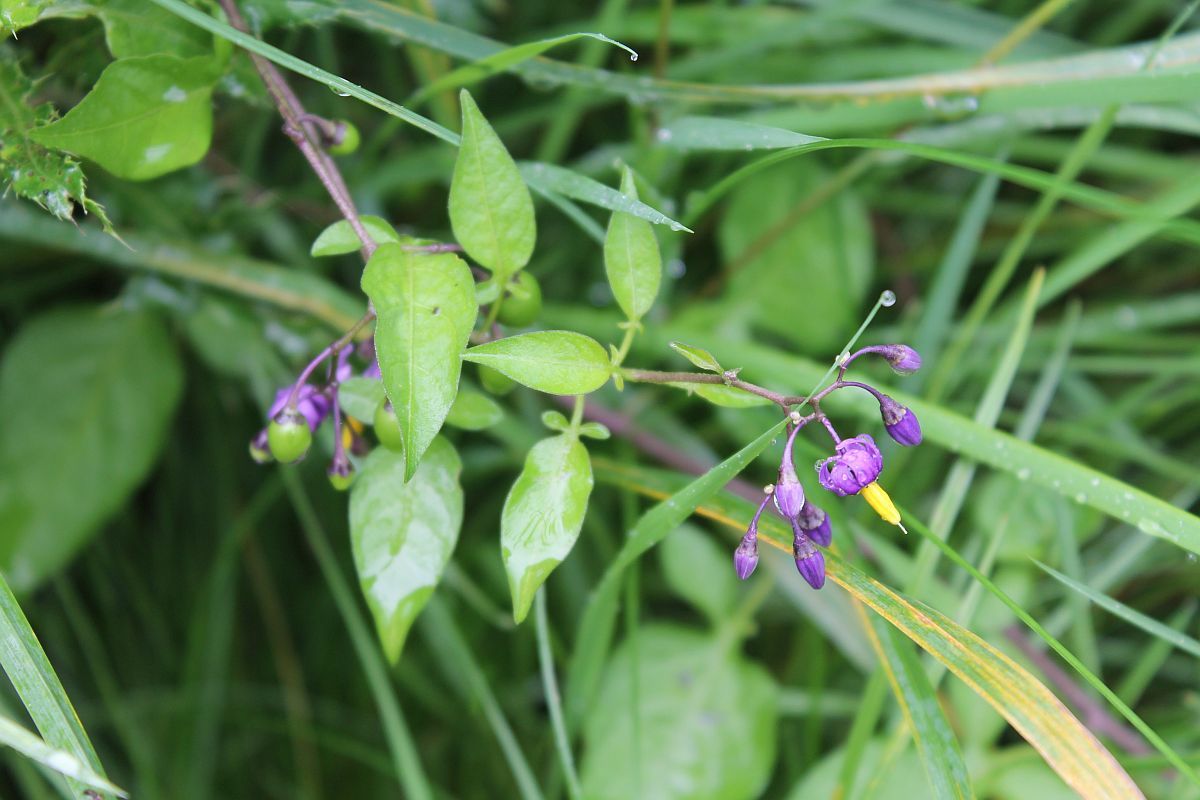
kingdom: Plantae
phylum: Tracheophyta
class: Magnoliopsida
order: Solanales
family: Solanaceae
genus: Solanum
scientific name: Solanum dulcamara
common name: Climbing nightshade
